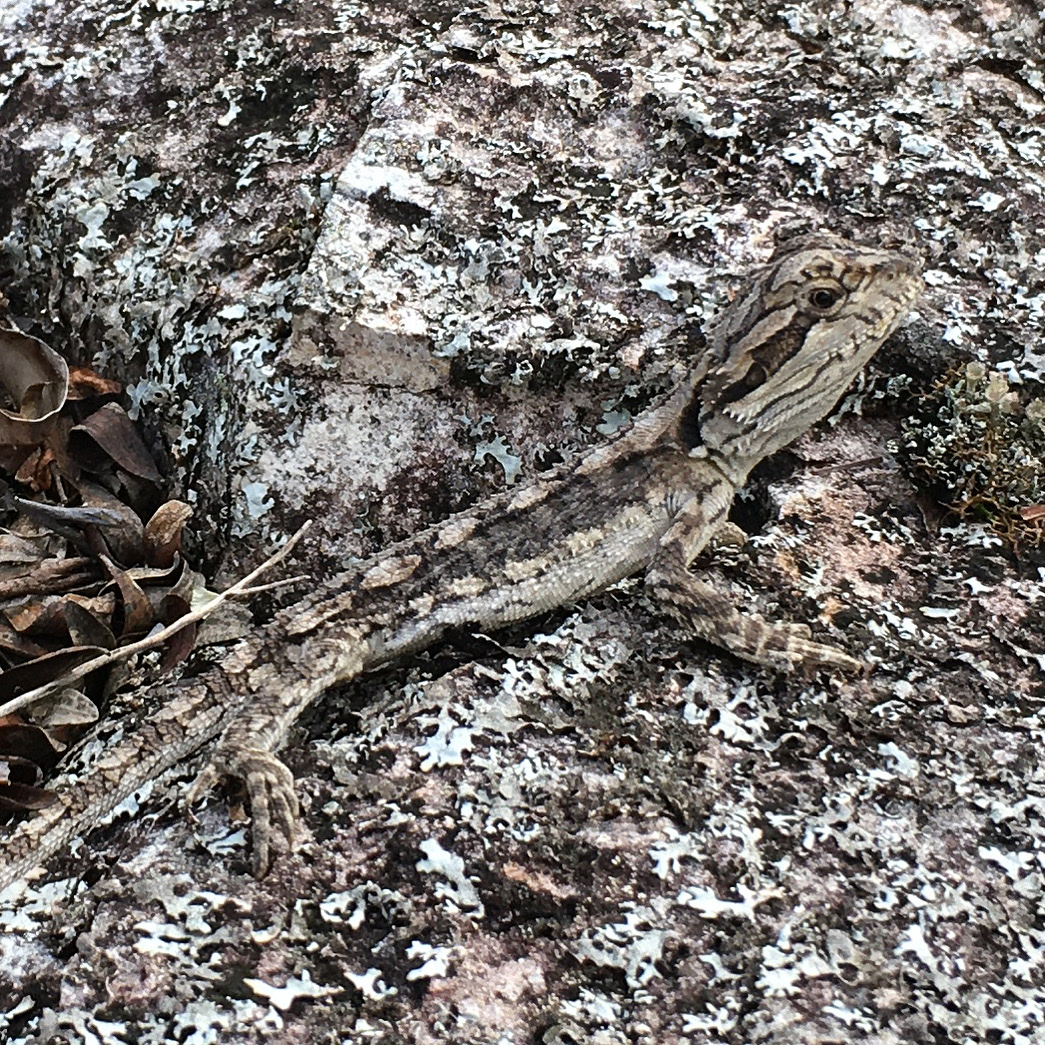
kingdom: Animalia
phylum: Chordata
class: Squamata
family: Agamidae
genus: Pogona
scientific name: Pogona barbata
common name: Bearded dragon
